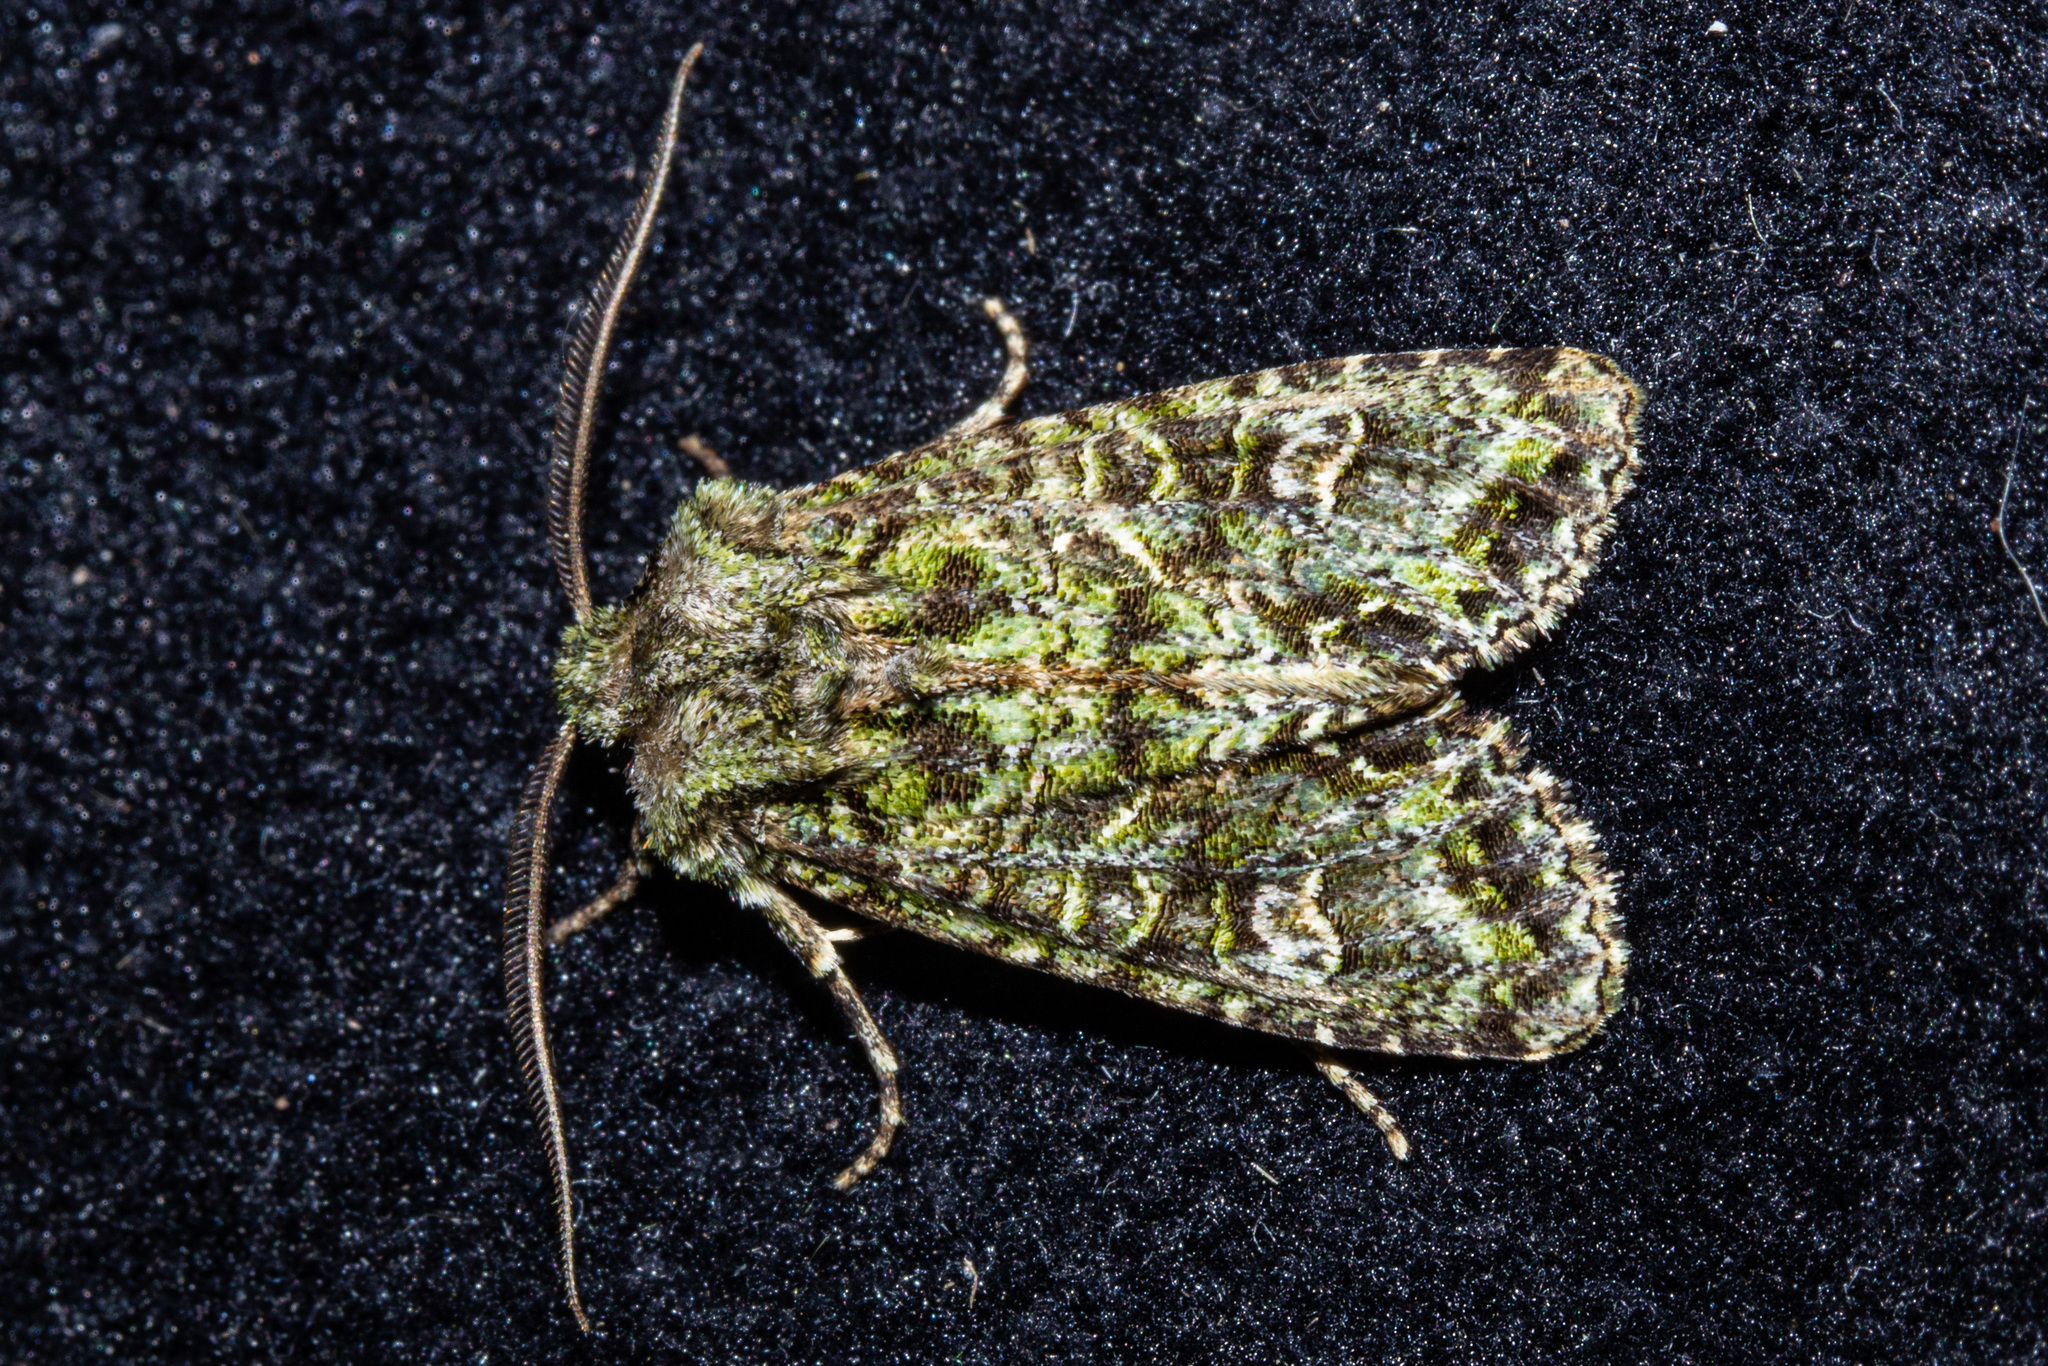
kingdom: Animalia
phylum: Arthropoda
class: Insecta
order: Lepidoptera
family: Noctuidae
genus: Ichneutica
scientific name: Ichneutica
